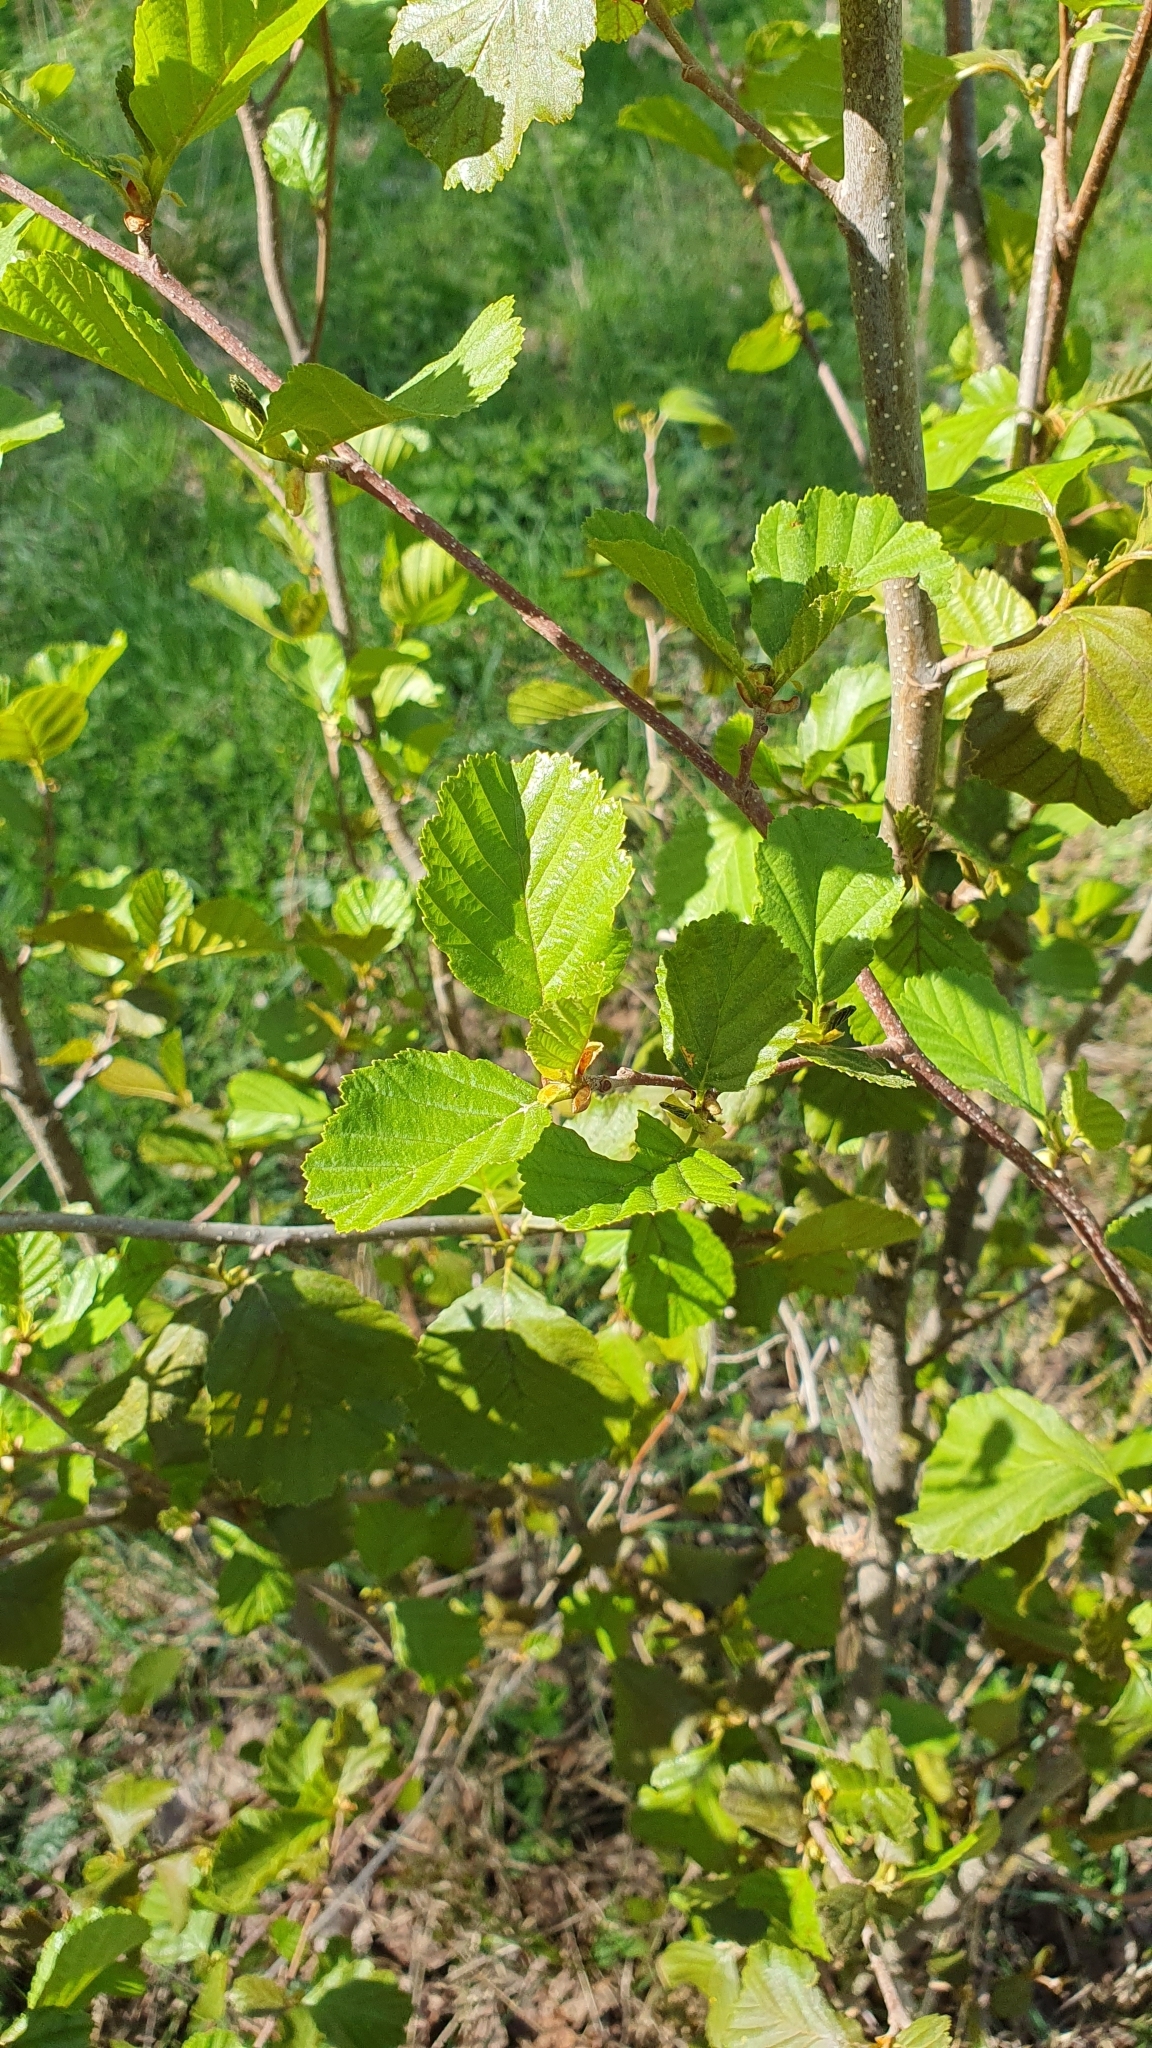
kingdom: Plantae
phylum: Tracheophyta
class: Magnoliopsida
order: Fagales
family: Betulaceae
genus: Alnus
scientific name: Alnus glutinosa
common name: Black alder
